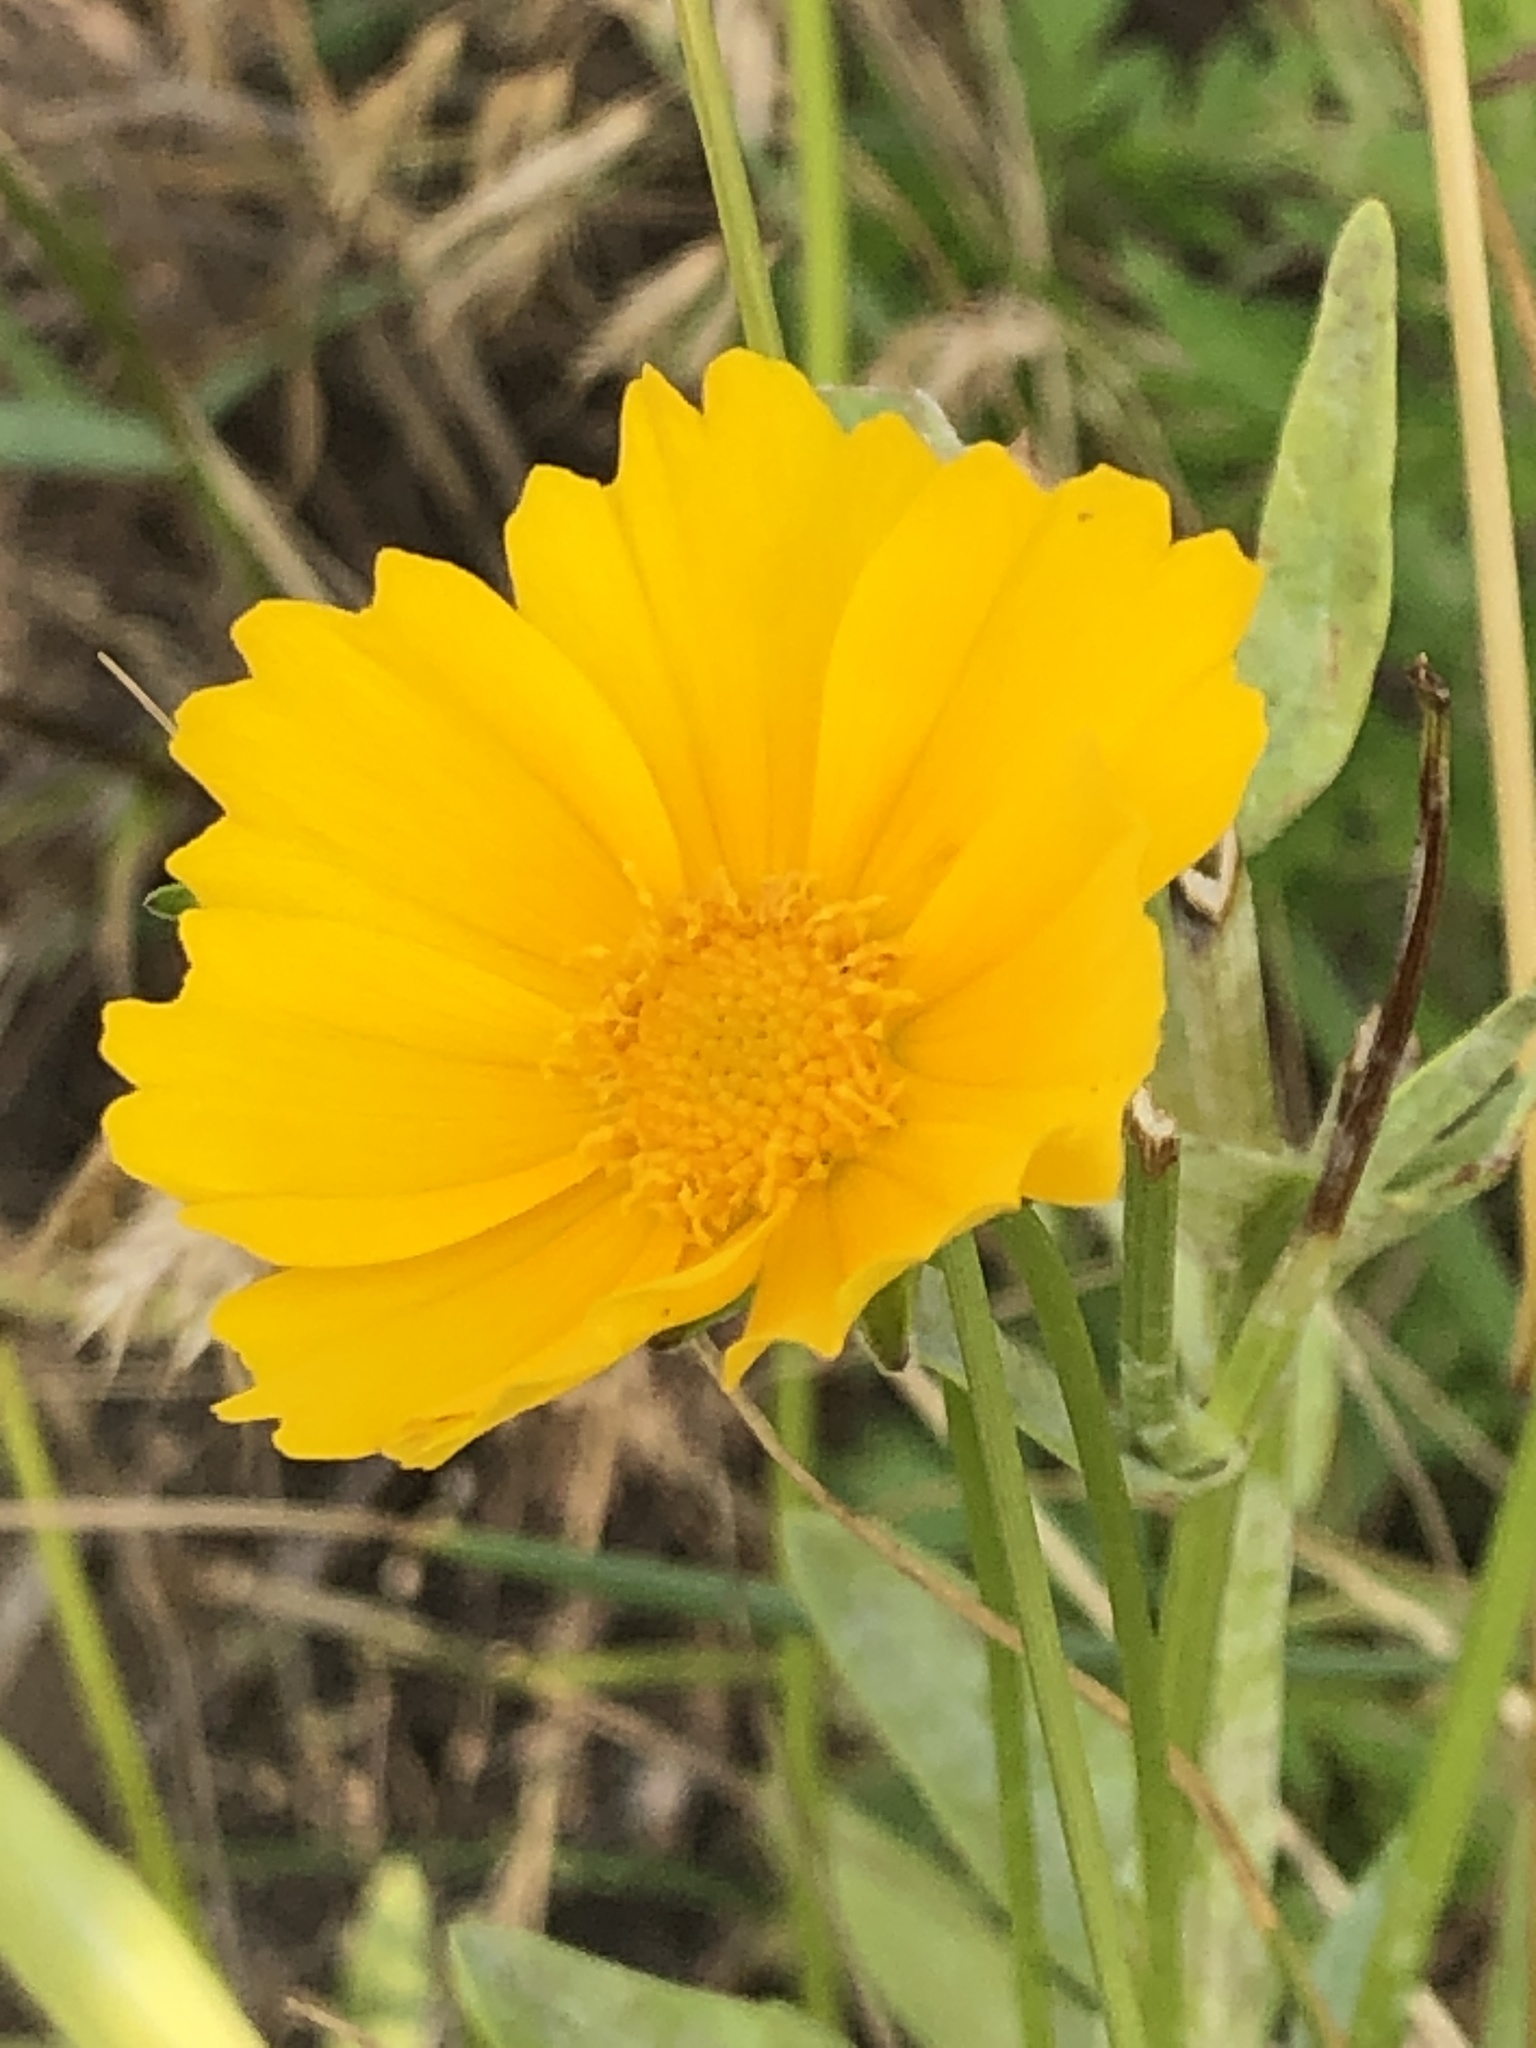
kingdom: Plantae
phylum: Tracheophyta
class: Magnoliopsida
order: Asterales
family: Asteraceae
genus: Coreopsis
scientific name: Coreopsis lanceolata
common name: Garden coreopsis
